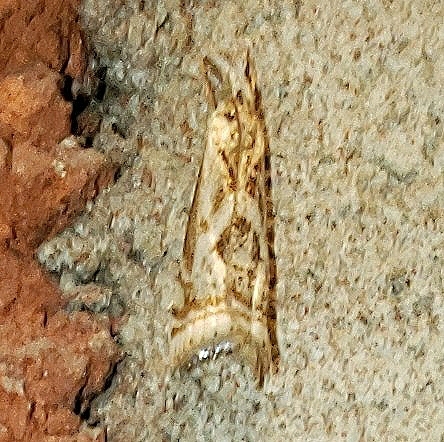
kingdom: Animalia
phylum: Arthropoda
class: Insecta
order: Lepidoptera
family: Crambidae
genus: Microcrambus
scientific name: Microcrambus elegans
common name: Elegant grass-veneer
